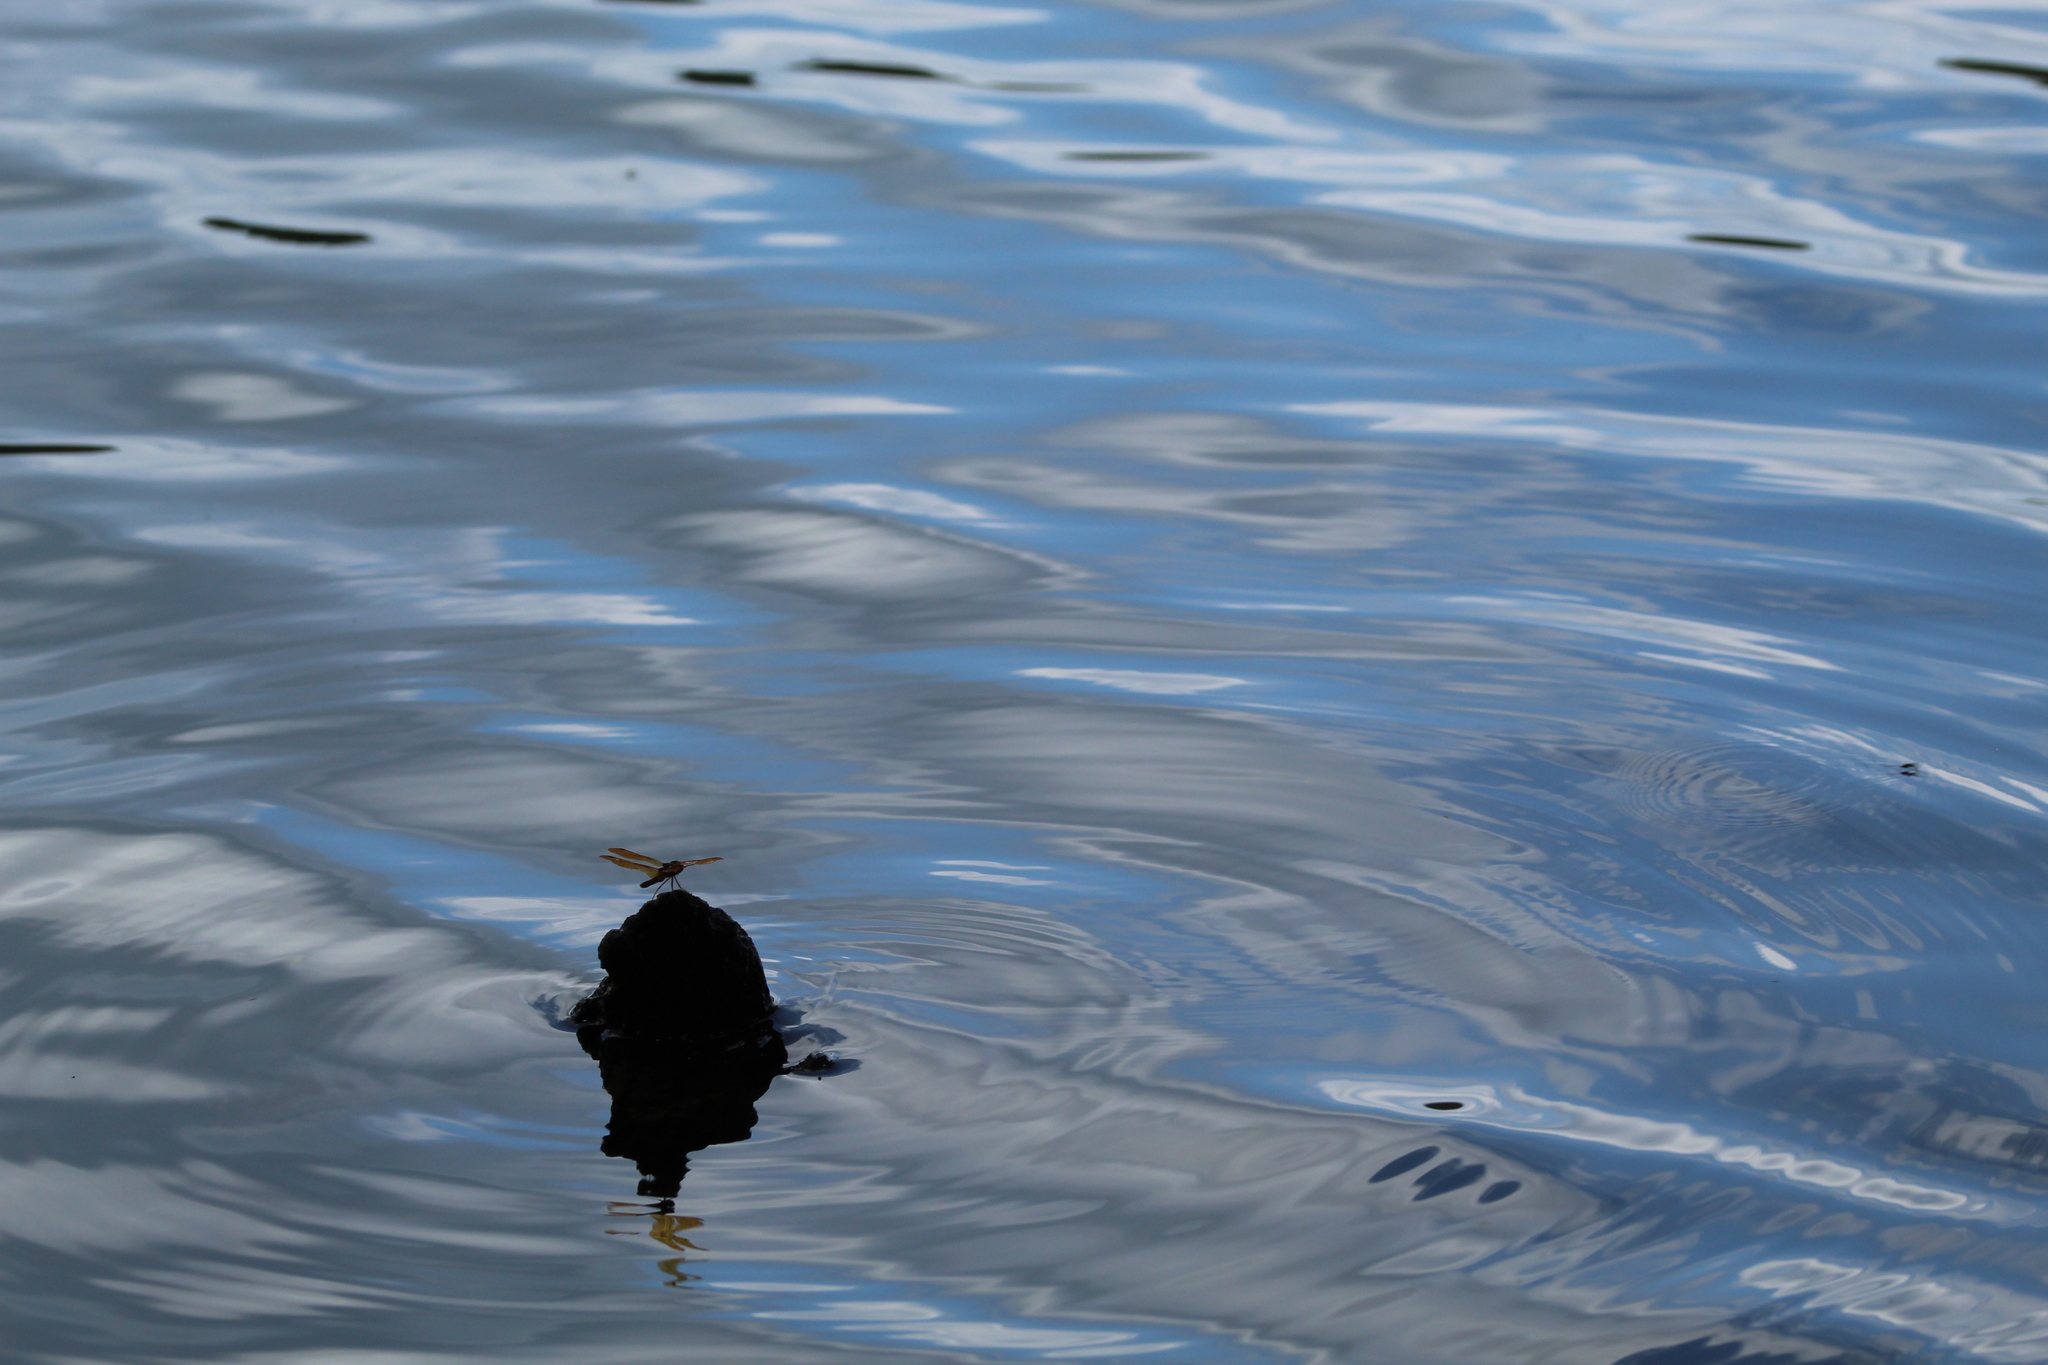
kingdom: Animalia
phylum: Arthropoda
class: Insecta
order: Odonata
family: Libellulidae
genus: Perithemis
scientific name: Perithemis tenera
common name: Eastern amberwing
